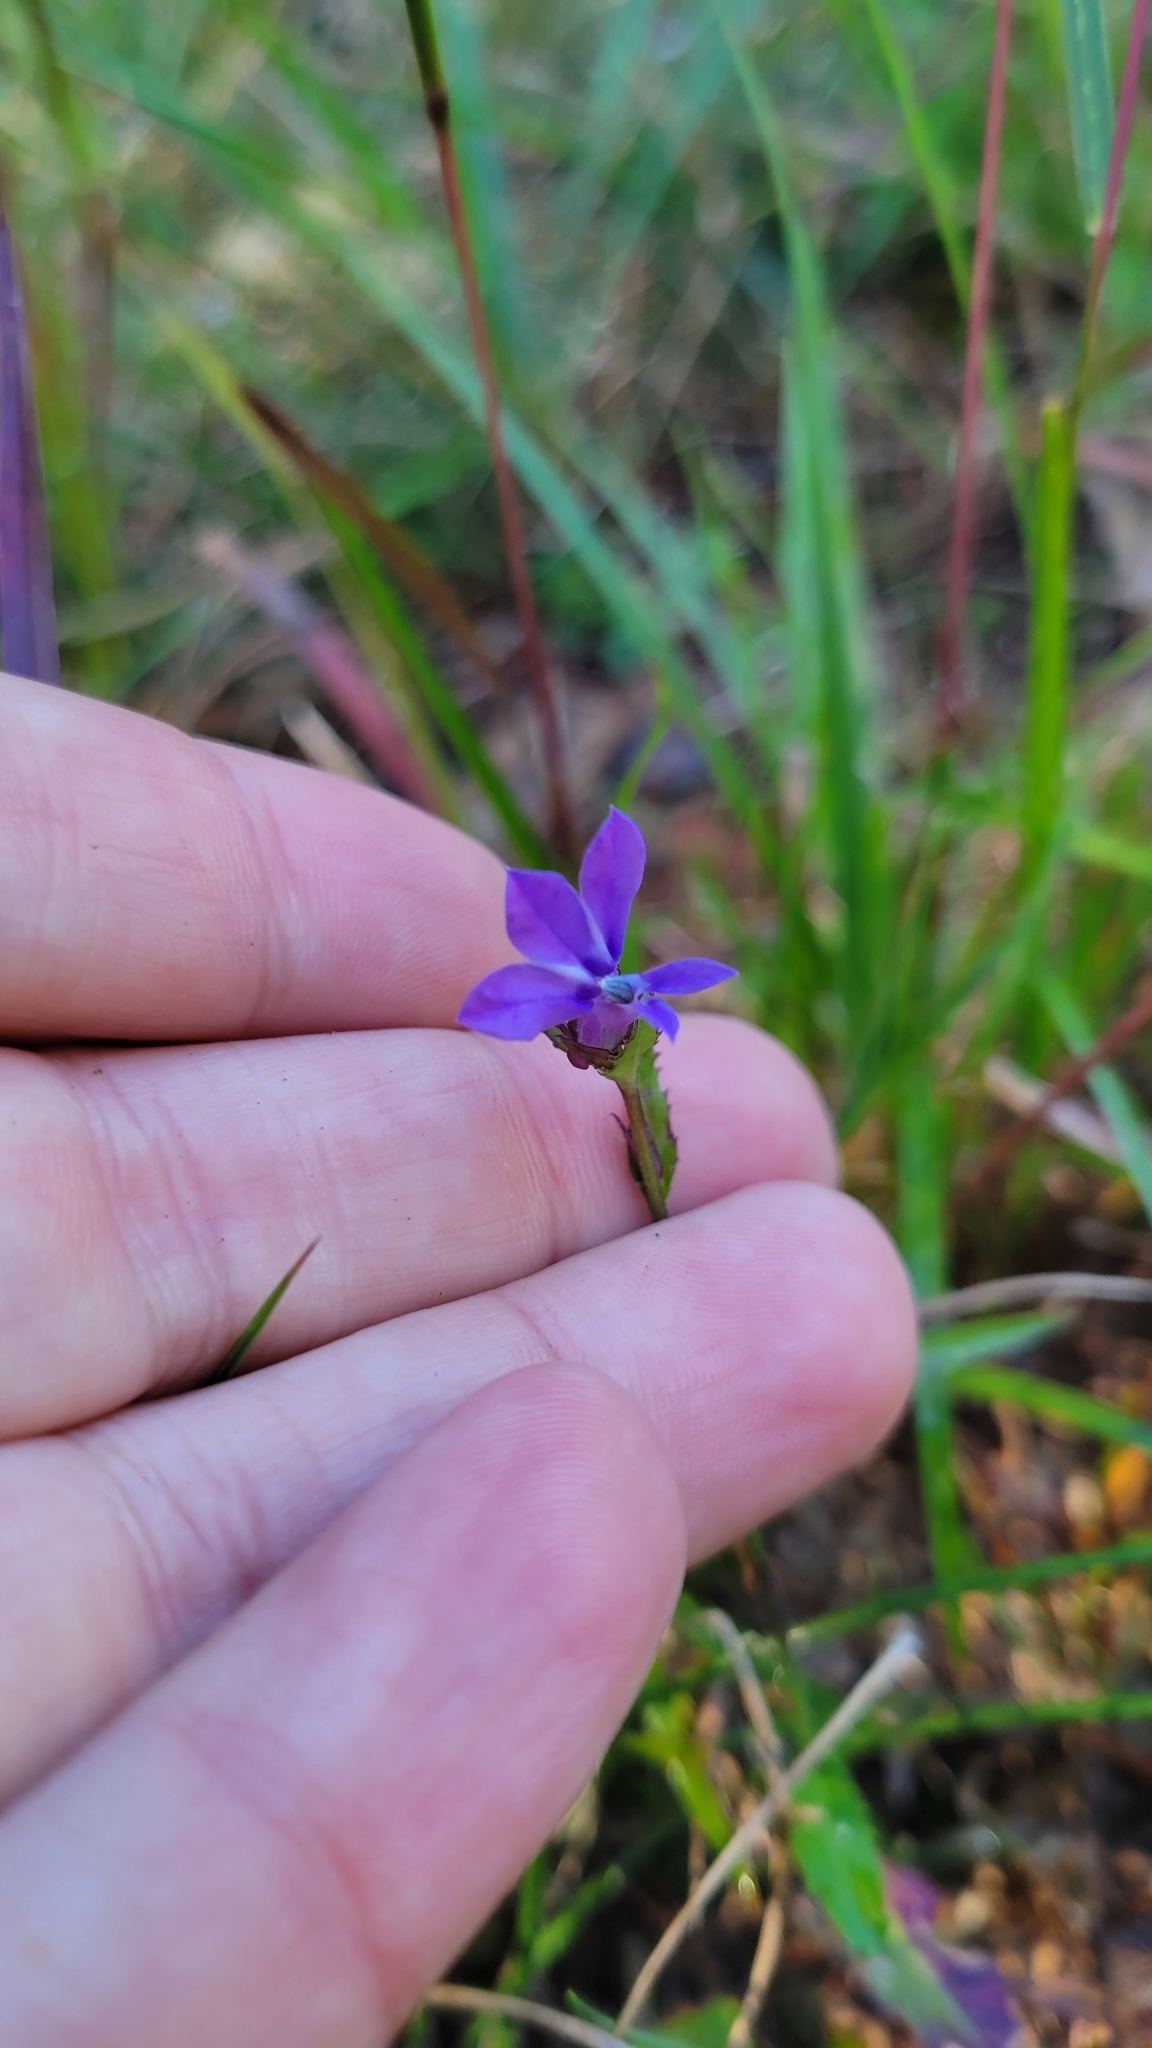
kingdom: Plantae
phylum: Tracheophyta
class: Magnoliopsida
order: Asterales
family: Campanulaceae
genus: Lobelia
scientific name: Lobelia puberula
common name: Purple dewdrop
